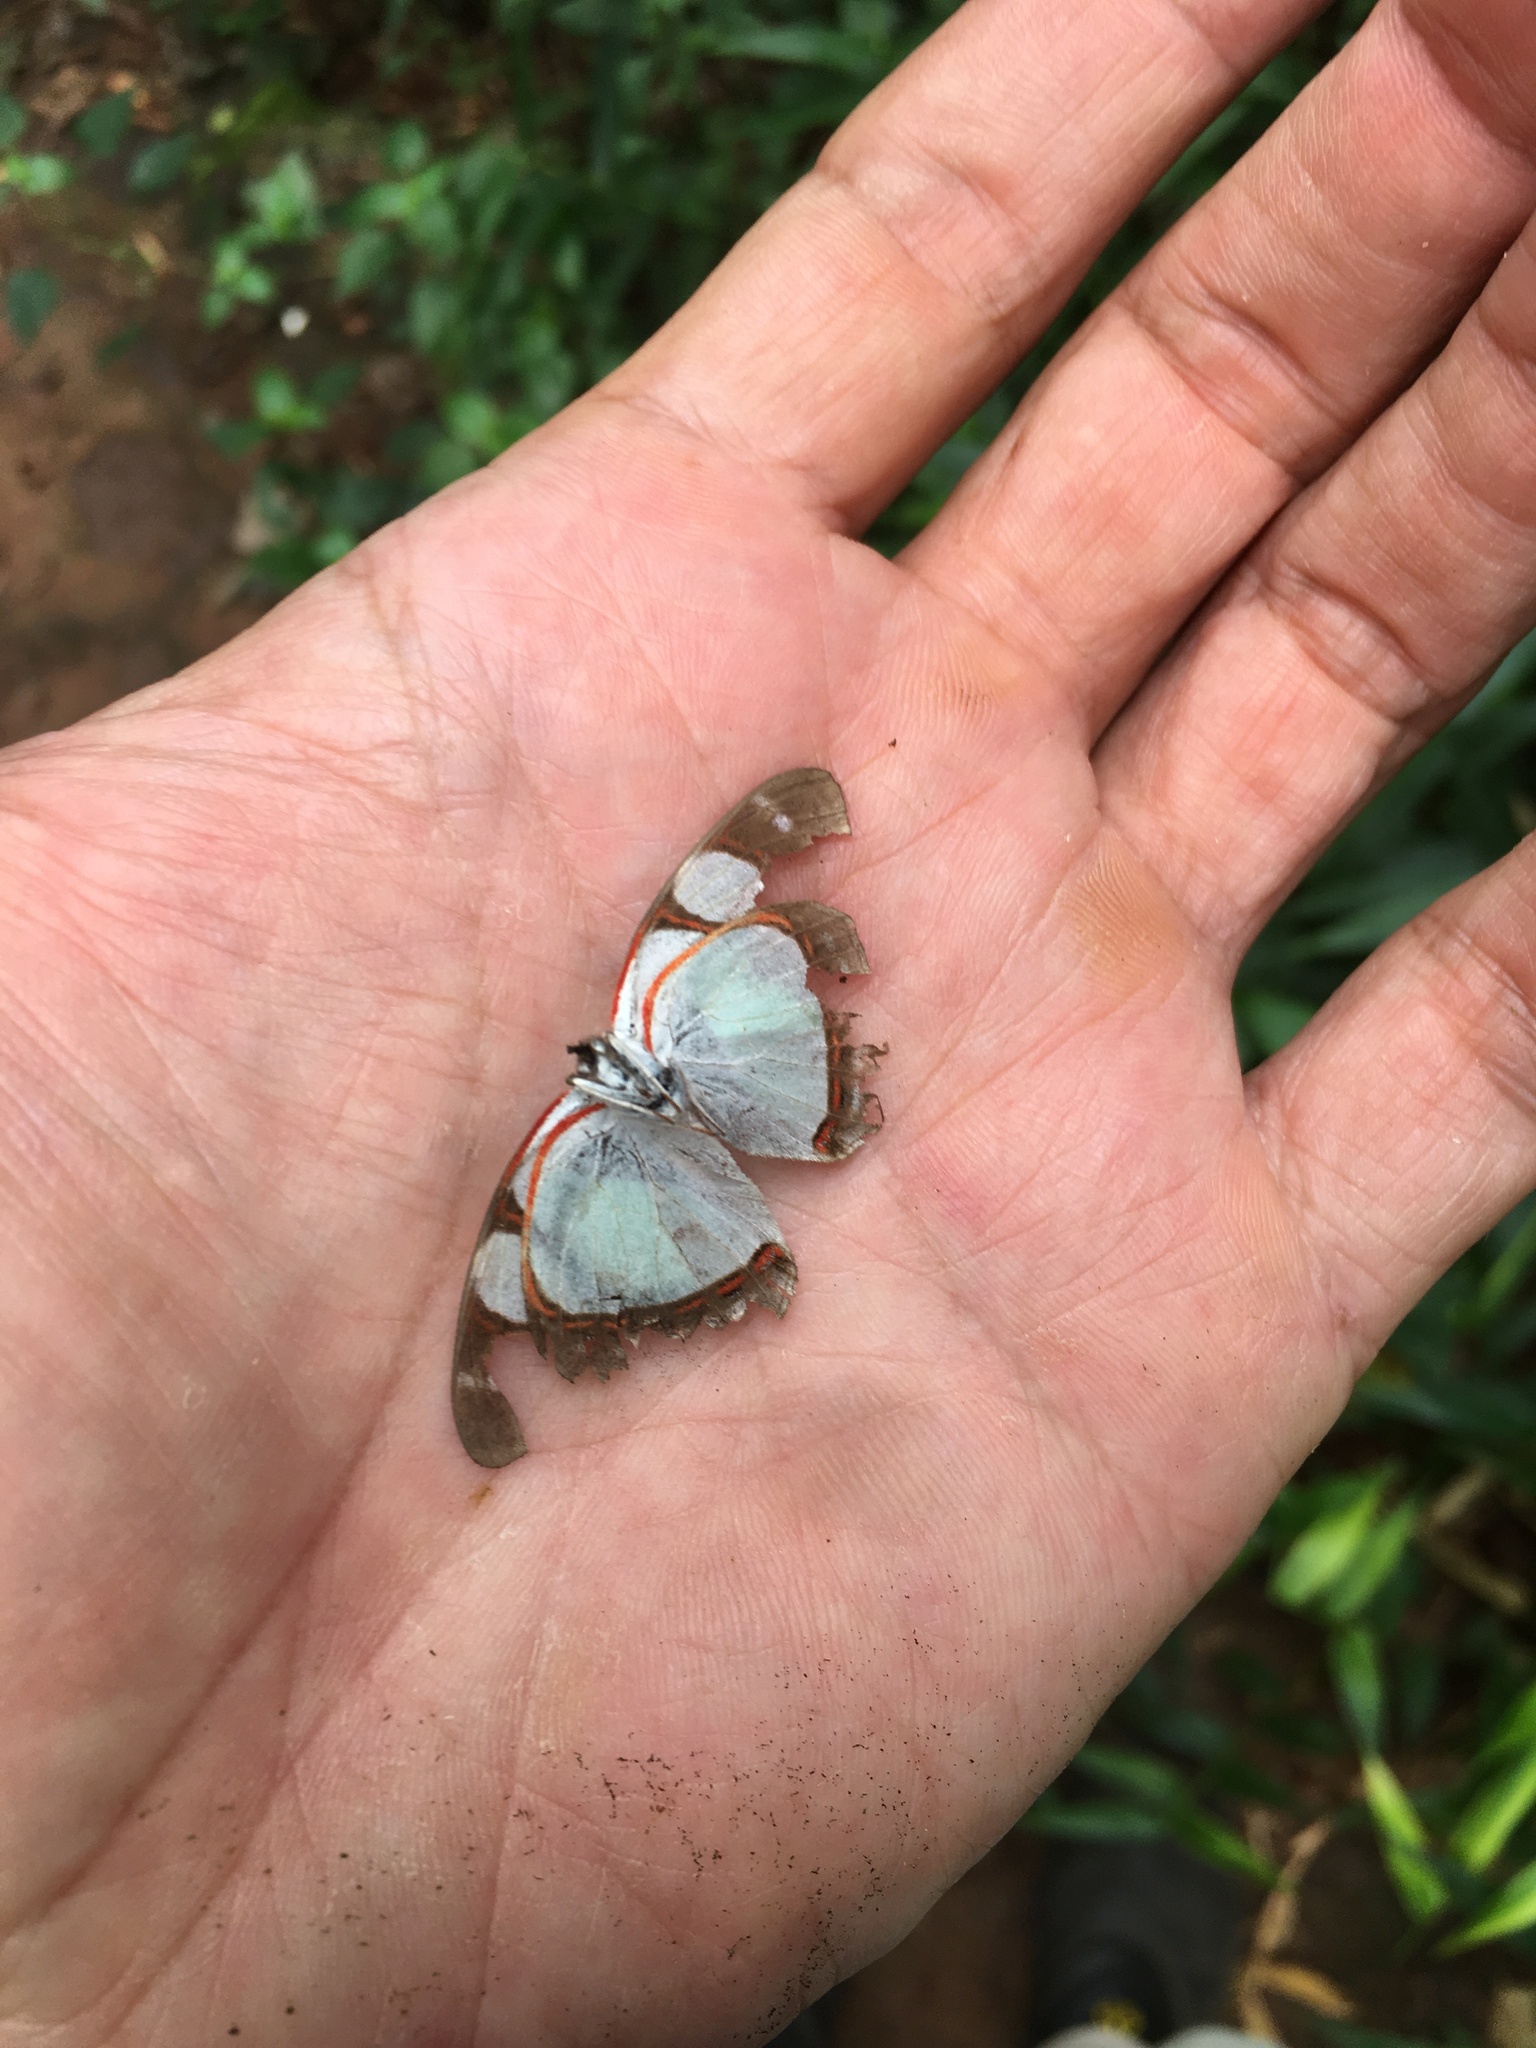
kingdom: Animalia
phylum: Arthropoda
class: Insecta
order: Lepidoptera
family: Nymphalidae
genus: Pyrrhogyra
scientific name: Pyrrhogyra neaerea
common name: Leading red-ring
